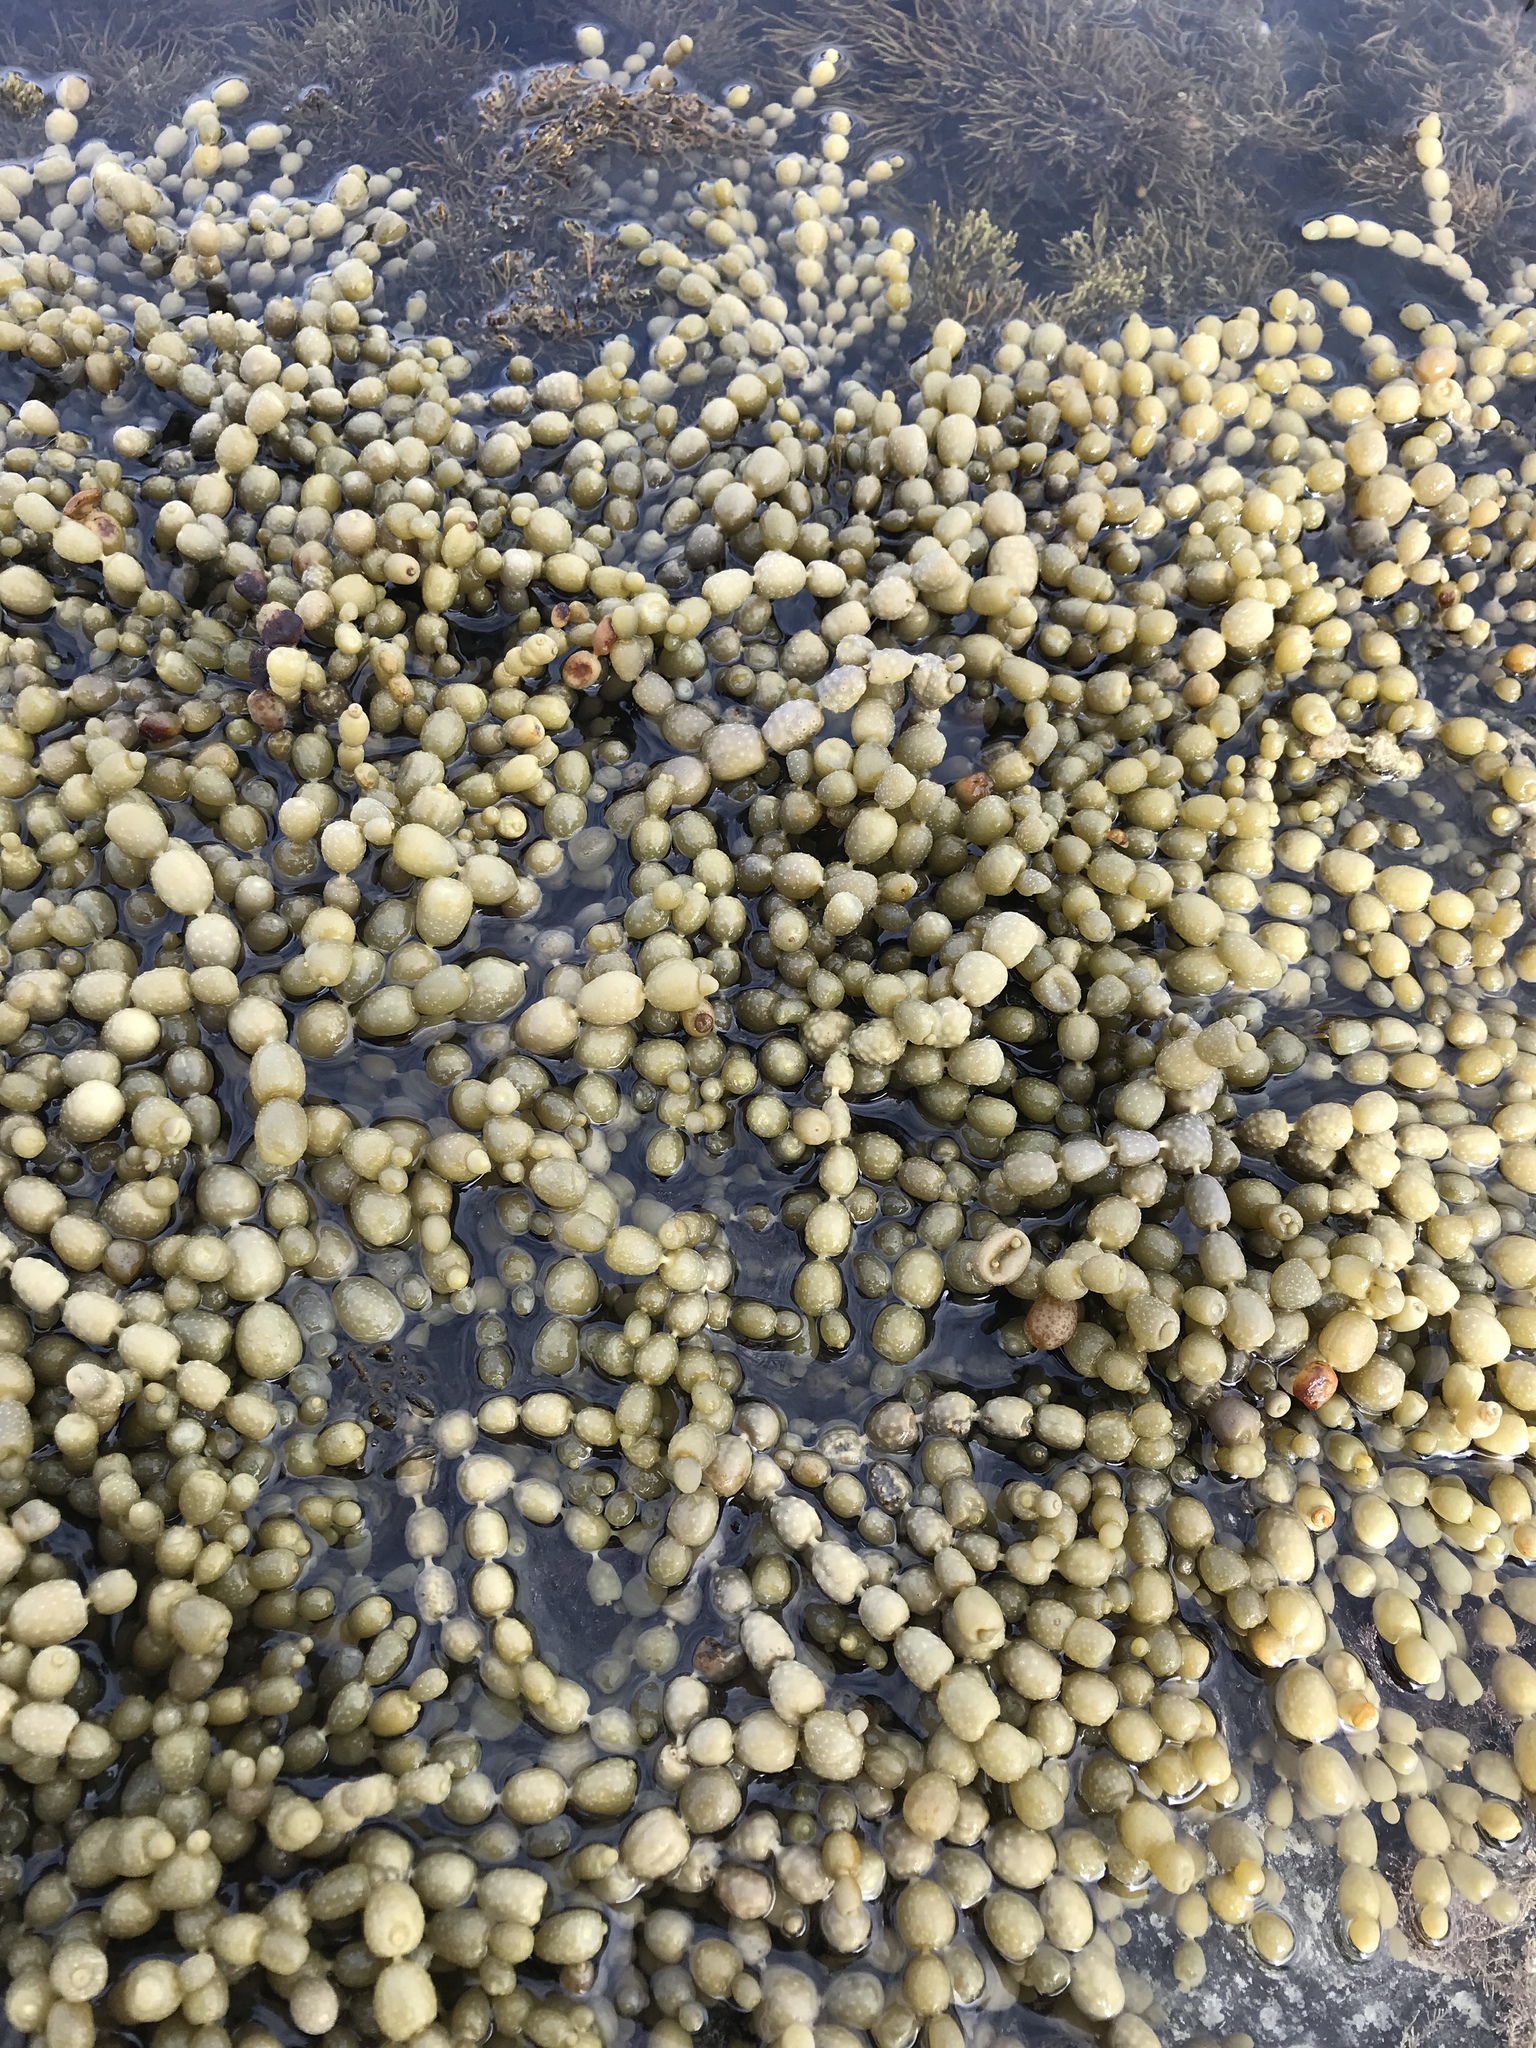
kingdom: Chromista
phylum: Ochrophyta
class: Phaeophyceae
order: Fucales
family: Hormosiraceae
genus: Hormosira
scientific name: Hormosira banksii
